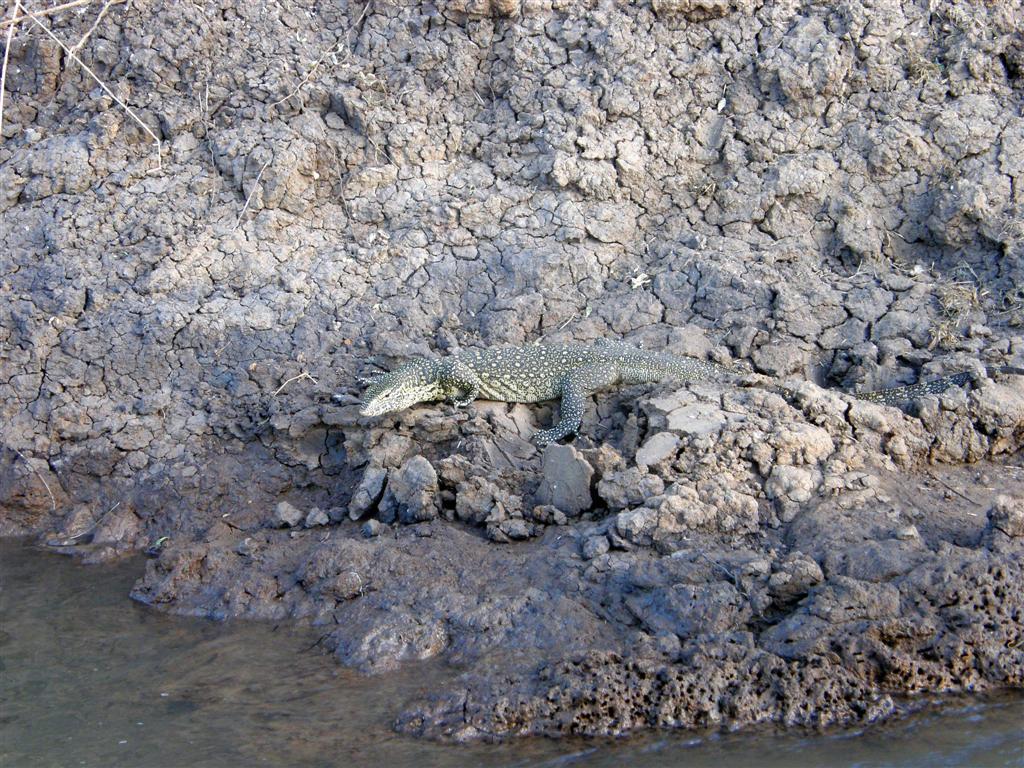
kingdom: Animalia
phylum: Chordata
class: Squamata
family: Varanidae
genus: Varanus
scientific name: Varanus niloticus
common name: Nile monitor
